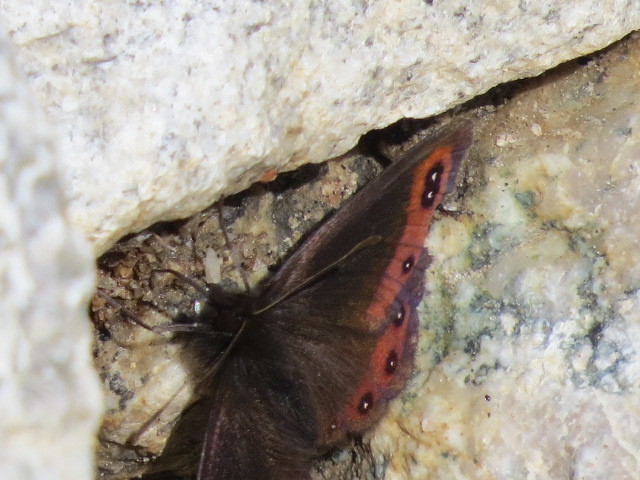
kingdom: Animalia
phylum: Arthropoda
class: Insecta
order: Lepidoptera
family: Nymphalidae
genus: Erebia
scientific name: Erebia montanus
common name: Marbled ringlet
